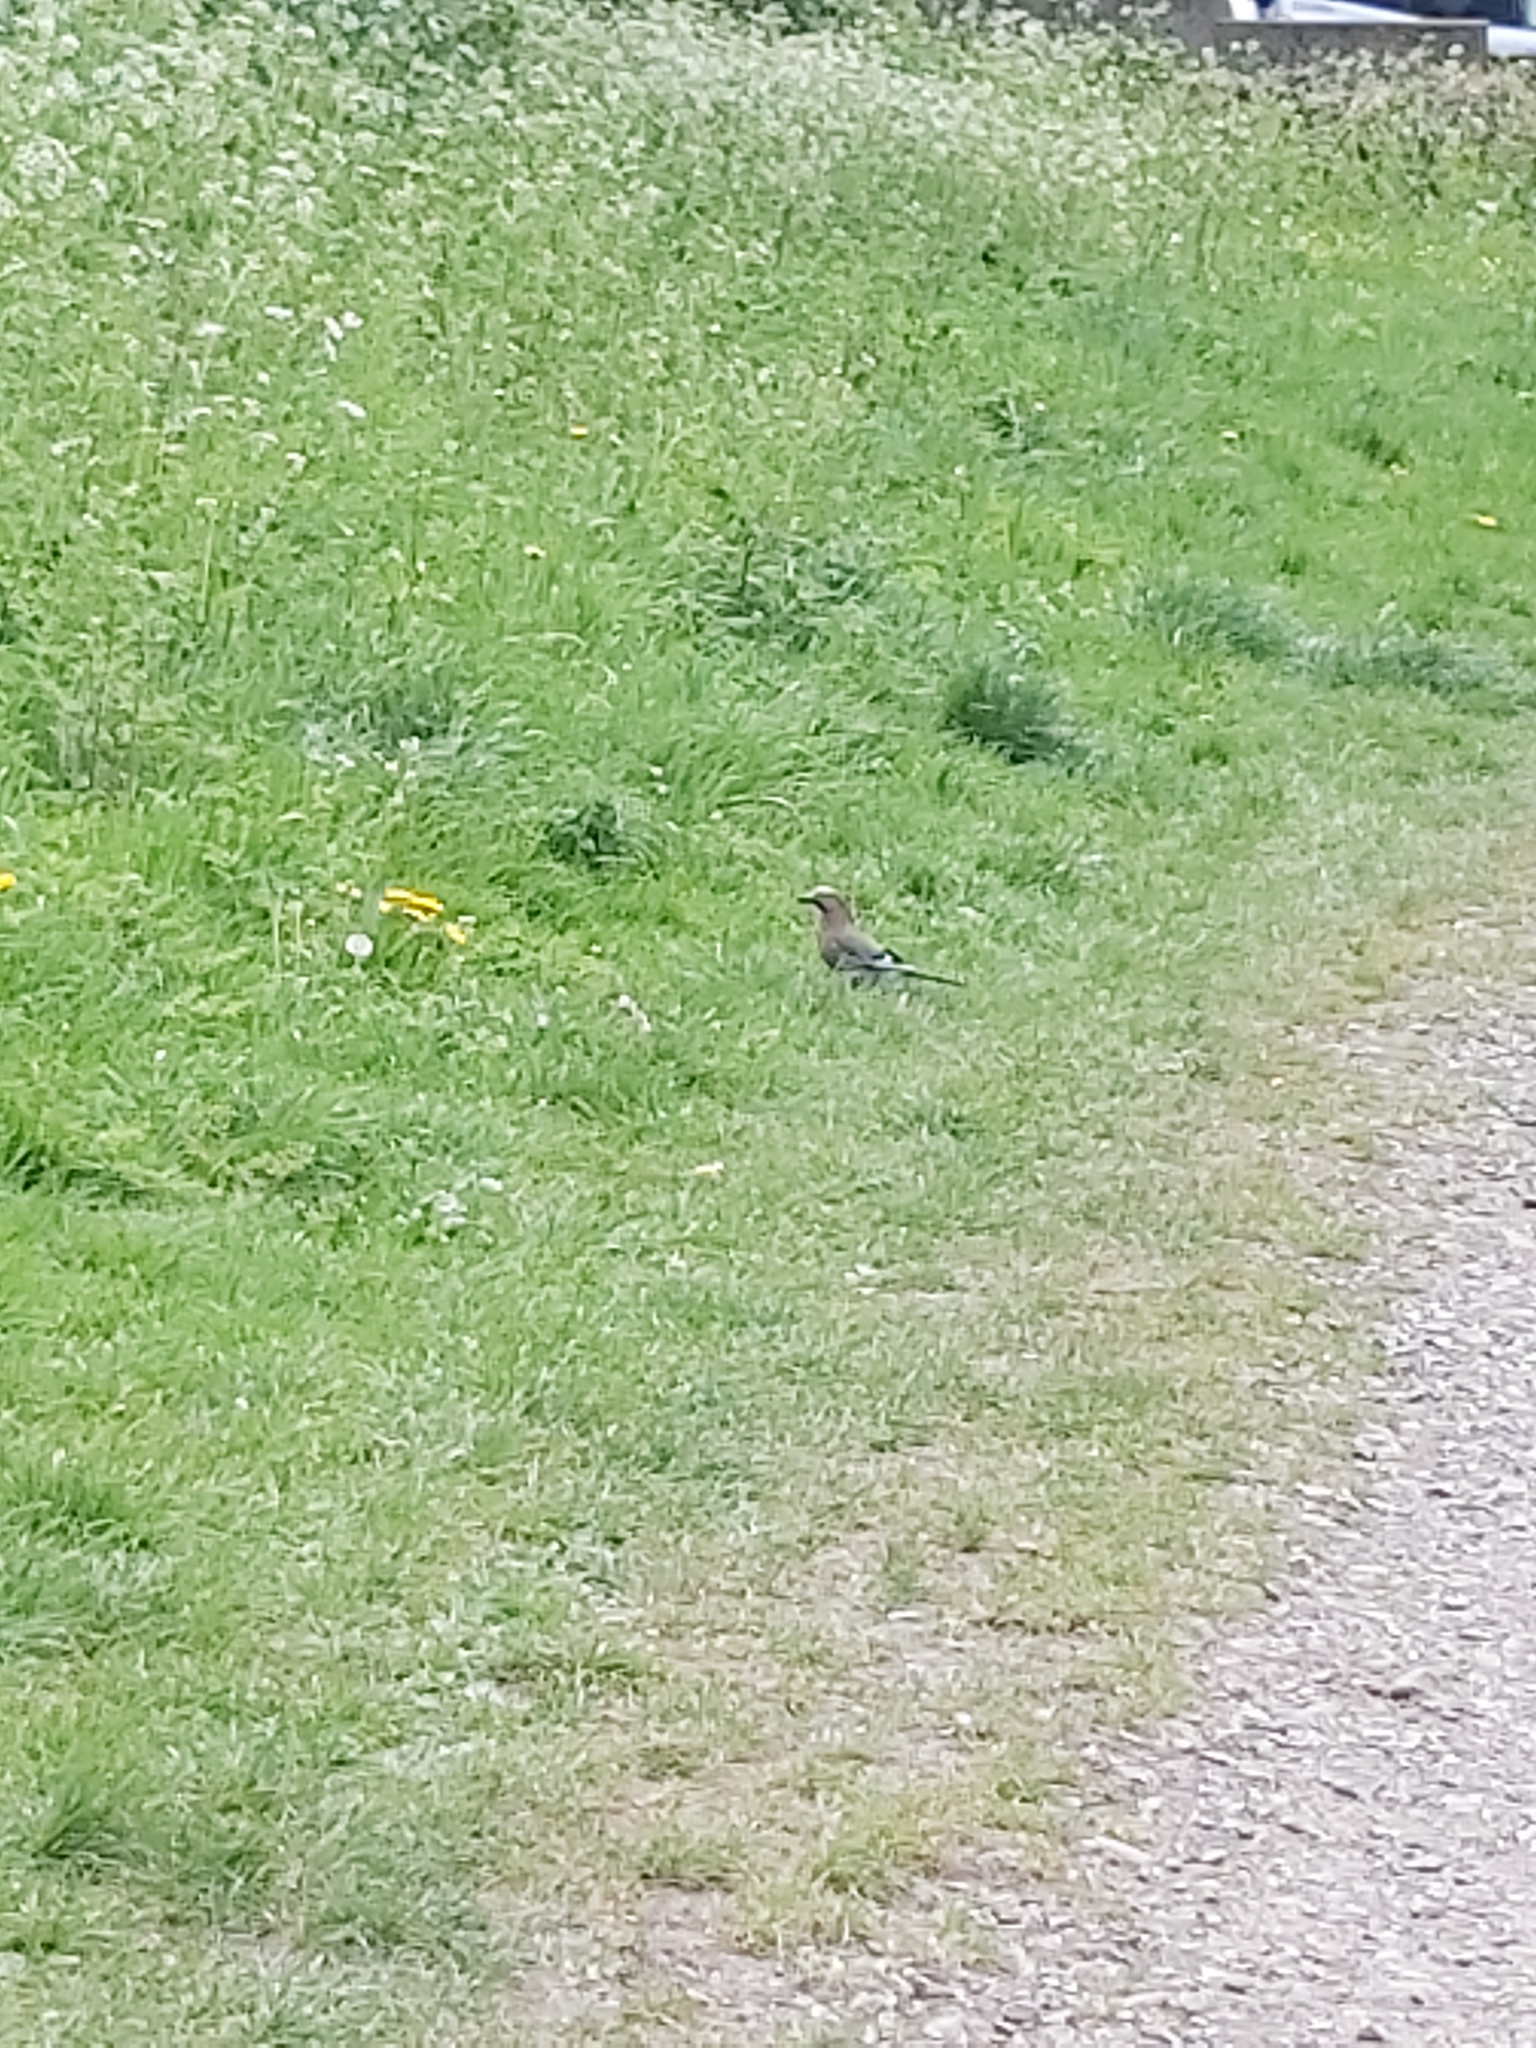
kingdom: Animalia
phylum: Chordata
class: Aves
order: Passeriformes
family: Corvidae
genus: Garrulus
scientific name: Garrulus glandarius
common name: Eurasian jay
